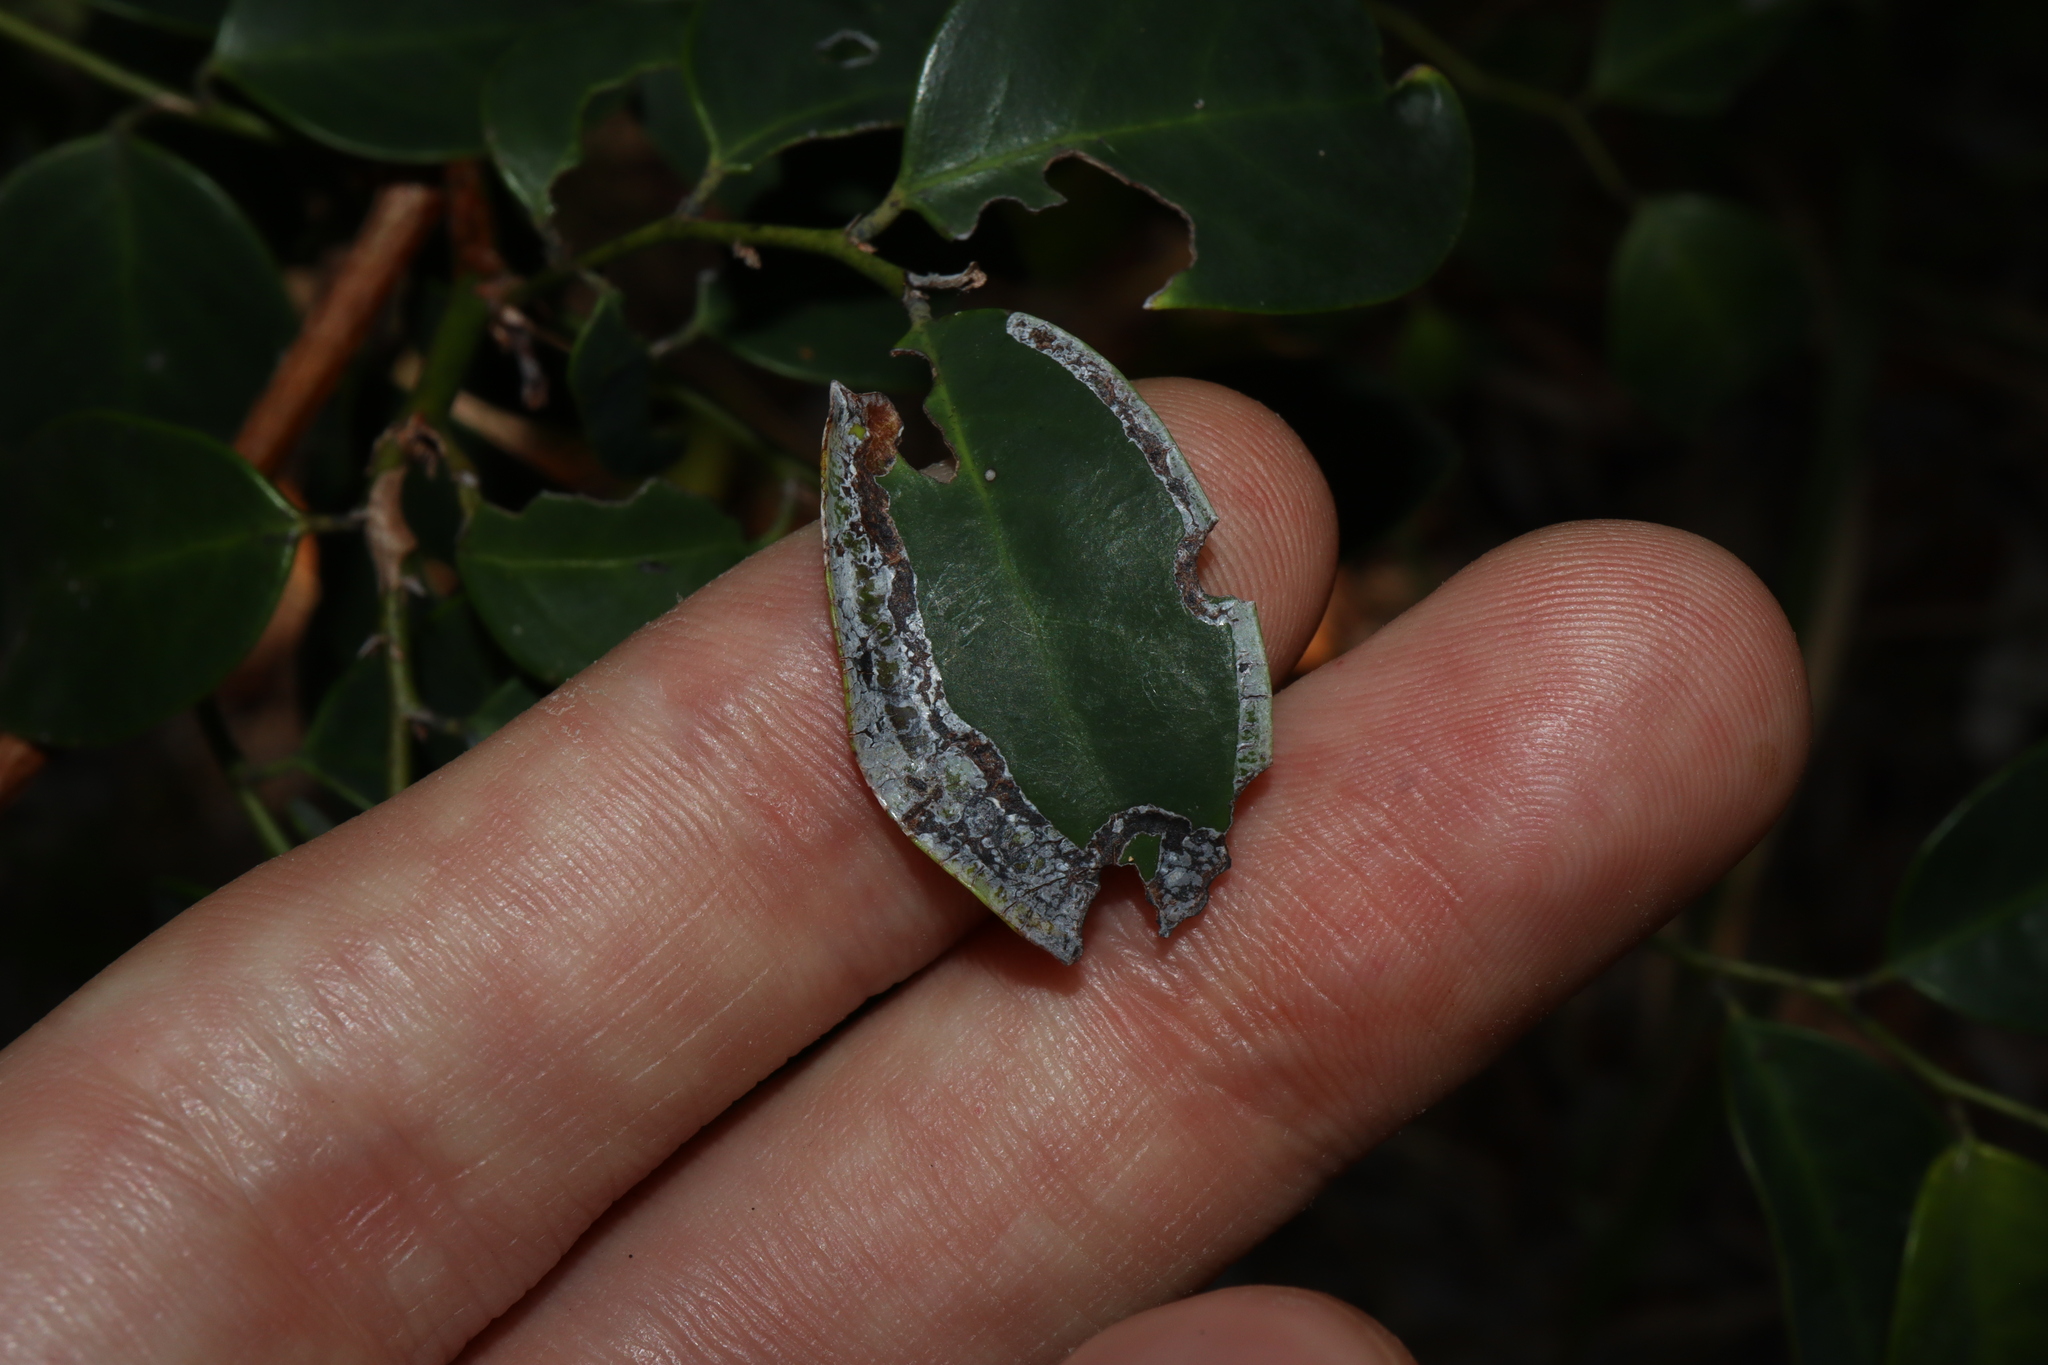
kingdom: Animalia
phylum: Arthropoda
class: Insecta
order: Lepidoptera
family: Gracillariidae
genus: Phyllocnistis
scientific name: Phyllocnistis diaugella
